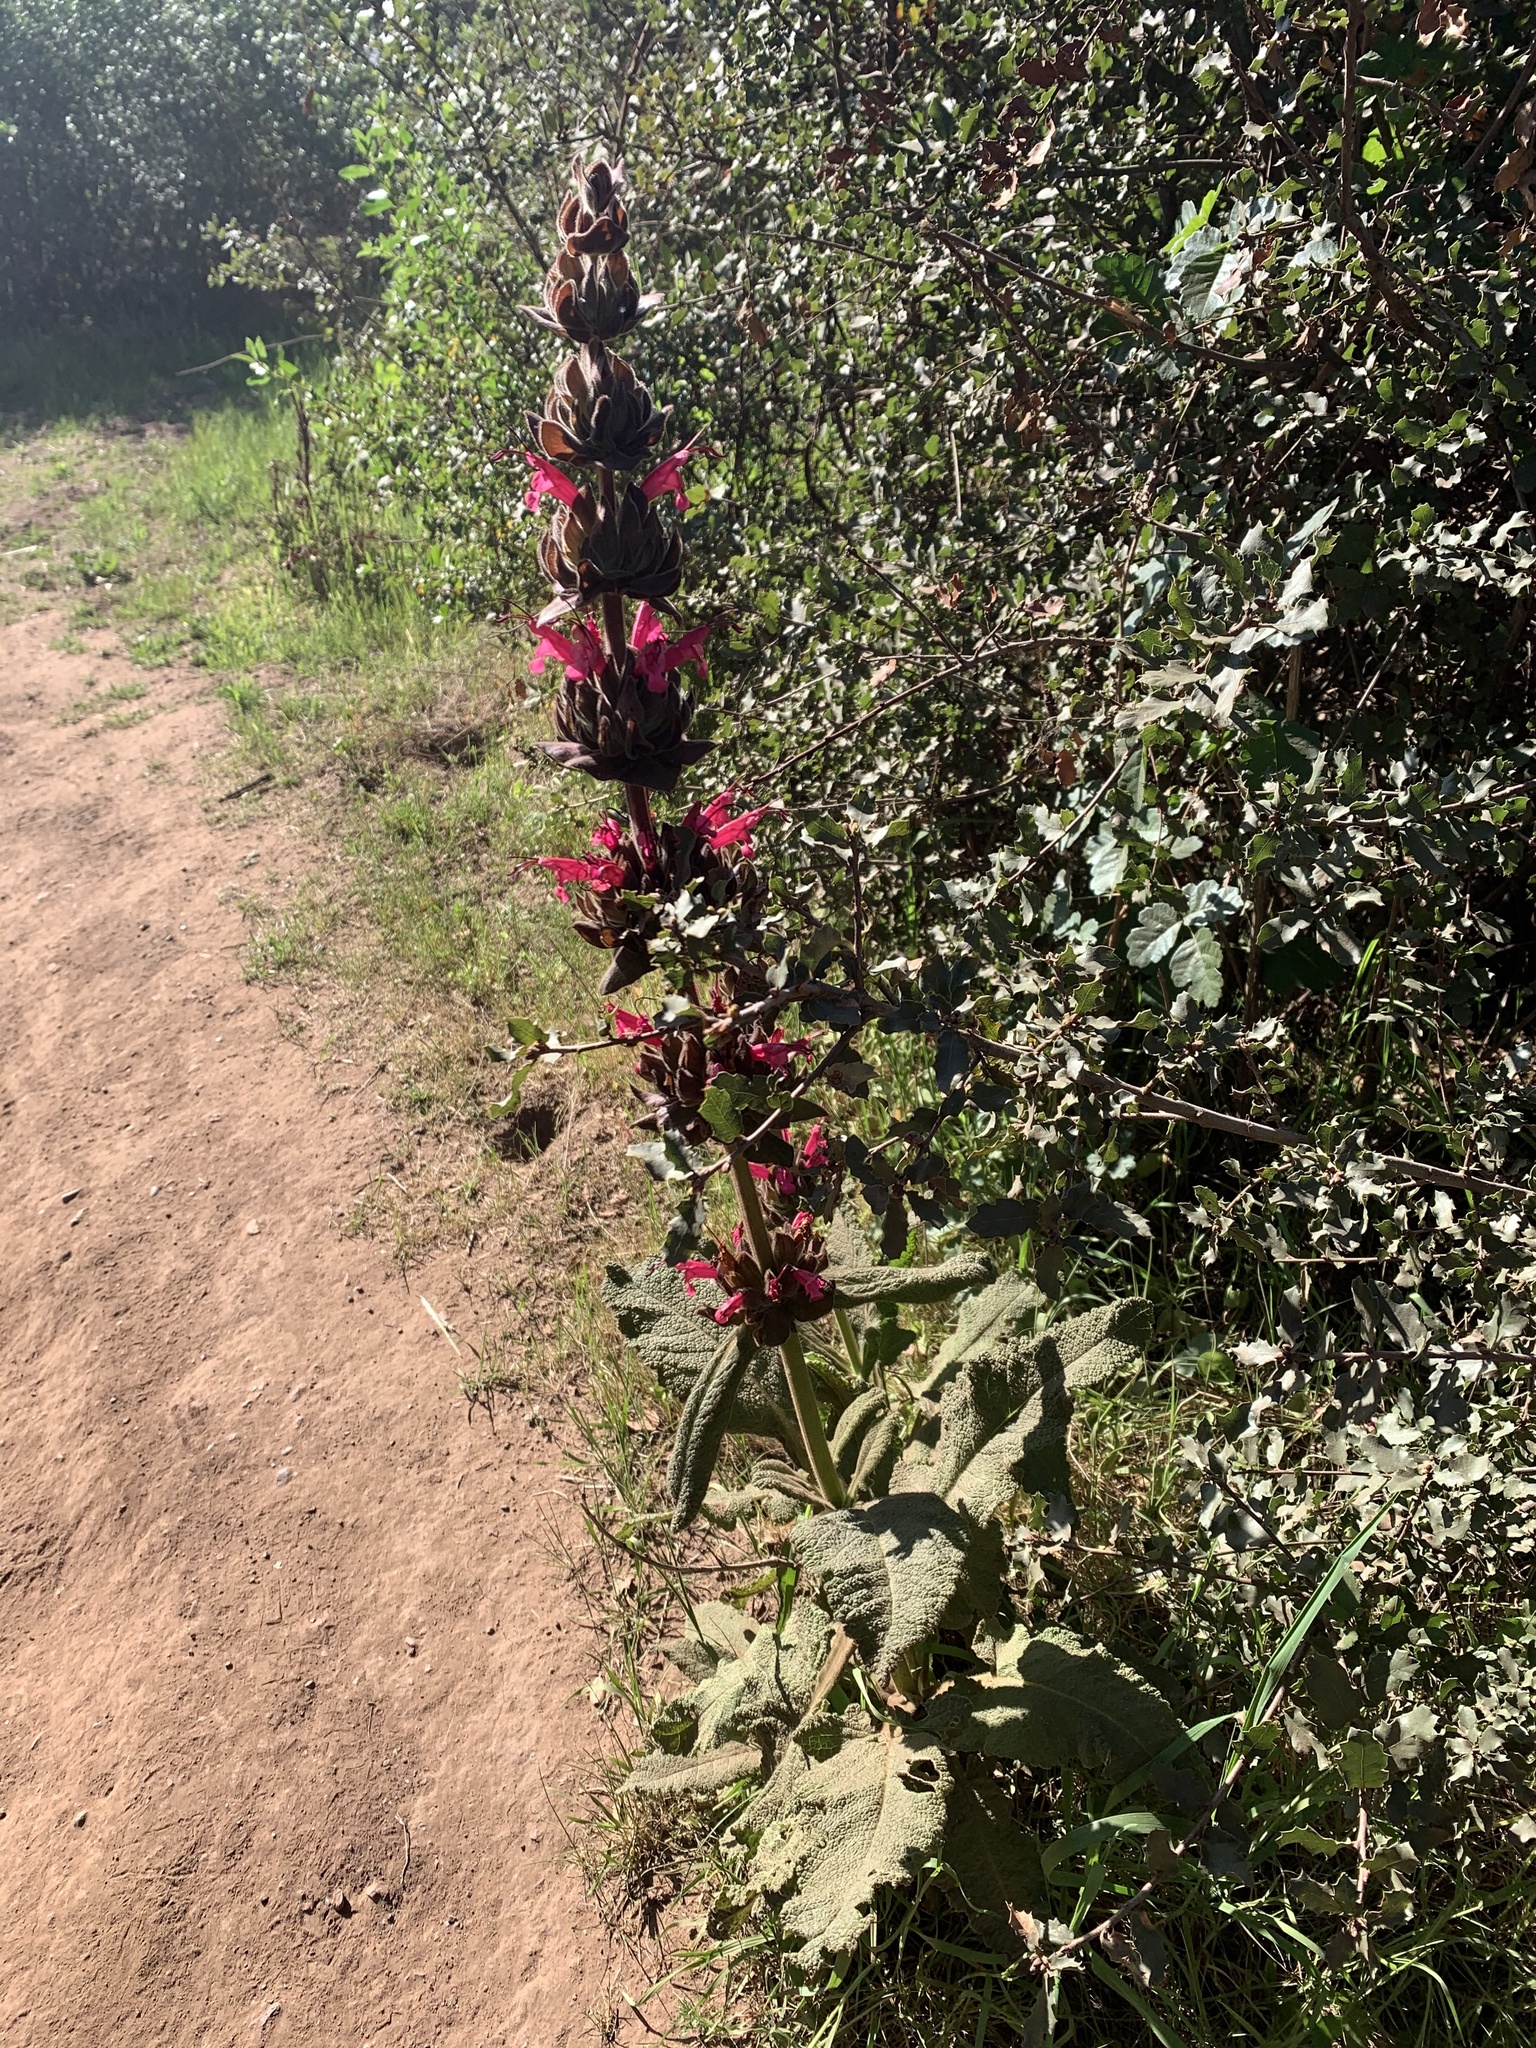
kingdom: Plantae
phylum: Tracheophyta
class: Magnoliopsida
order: Lamiales
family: Lamiaceae
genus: Salvia
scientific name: Salvia spathacea
